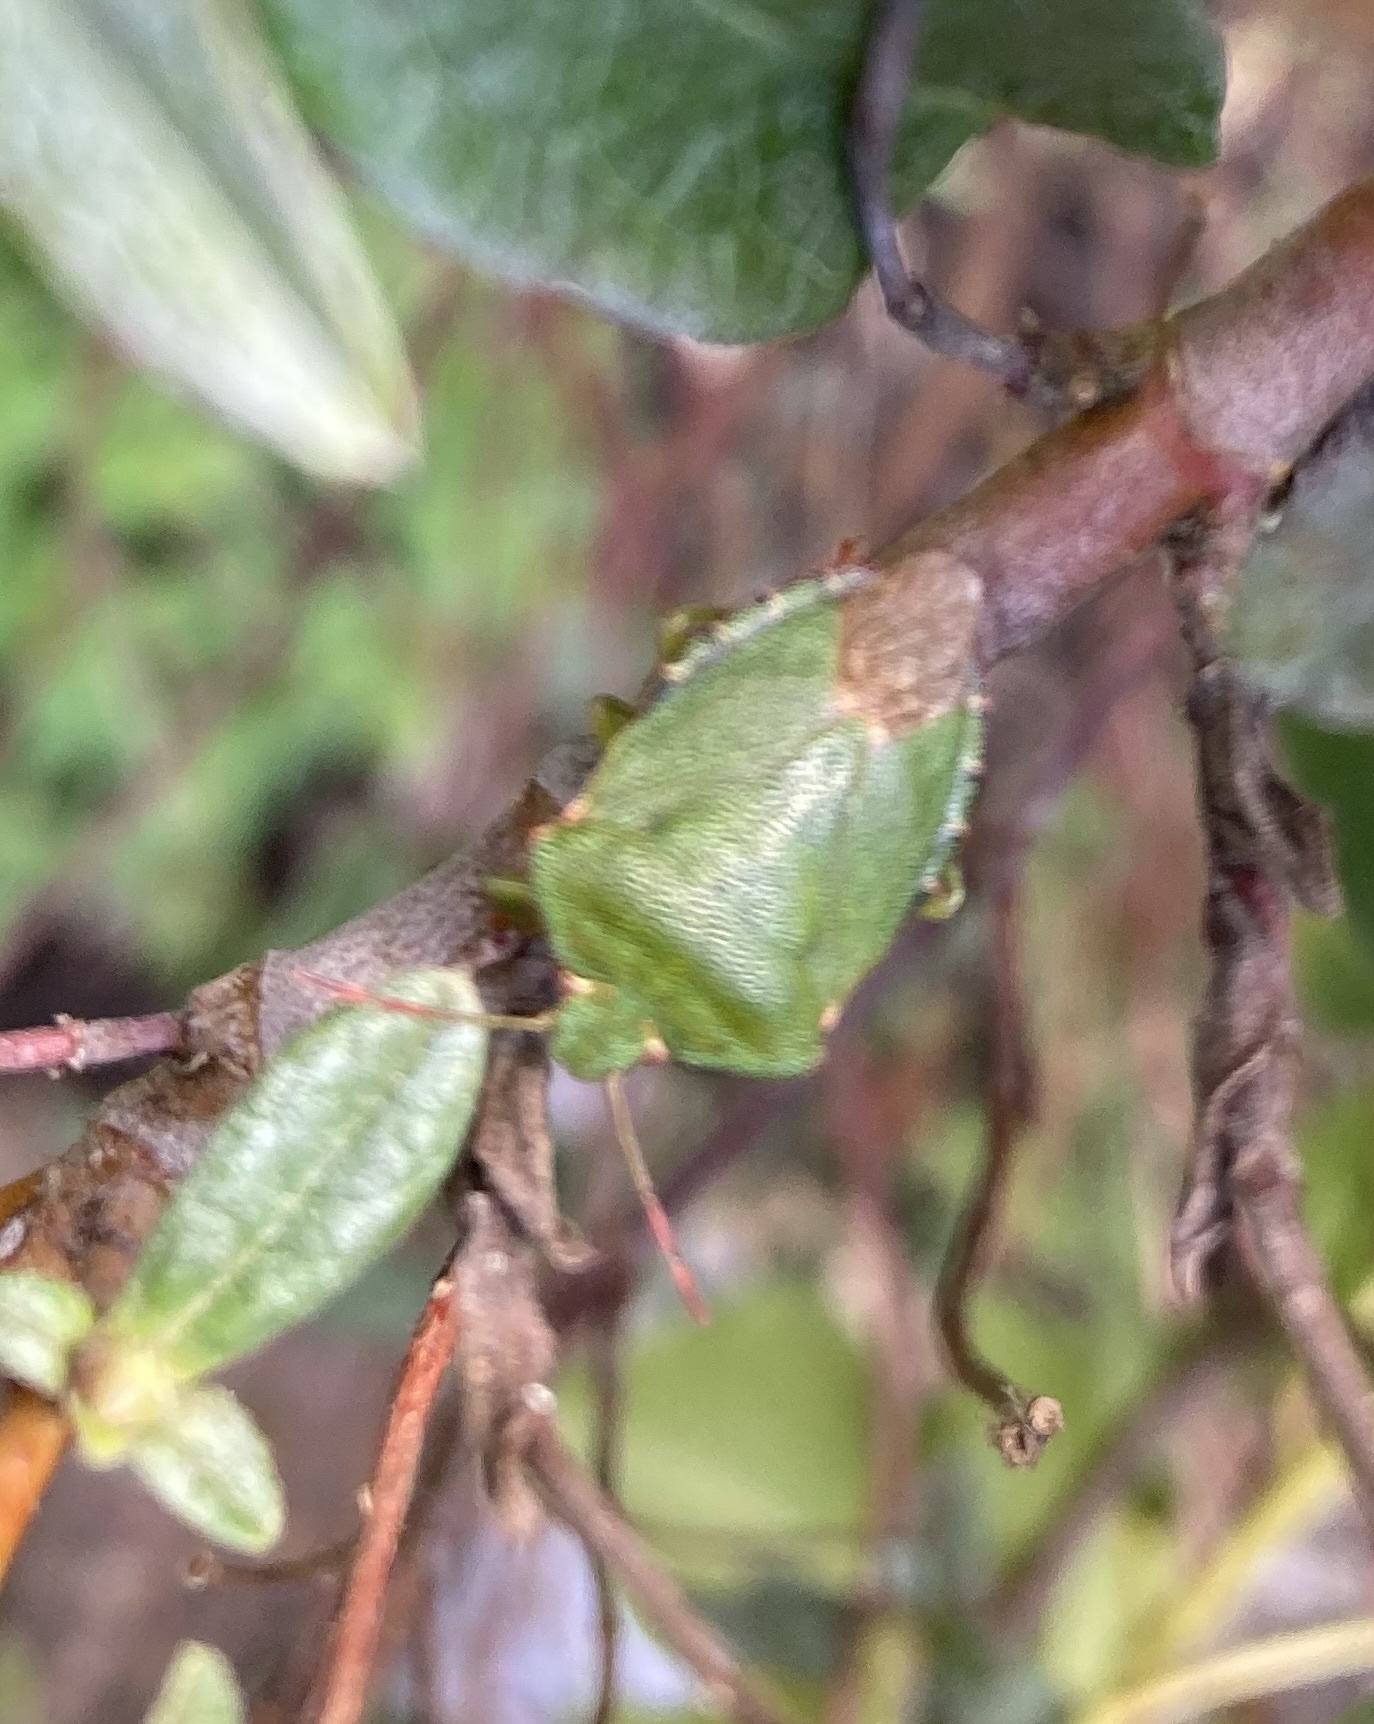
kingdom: Animalia
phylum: Arthropoda
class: Insecta
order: Hemiptera
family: Pentatomidae
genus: Palomena
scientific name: Palomena prasina
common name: Green shieldbug
